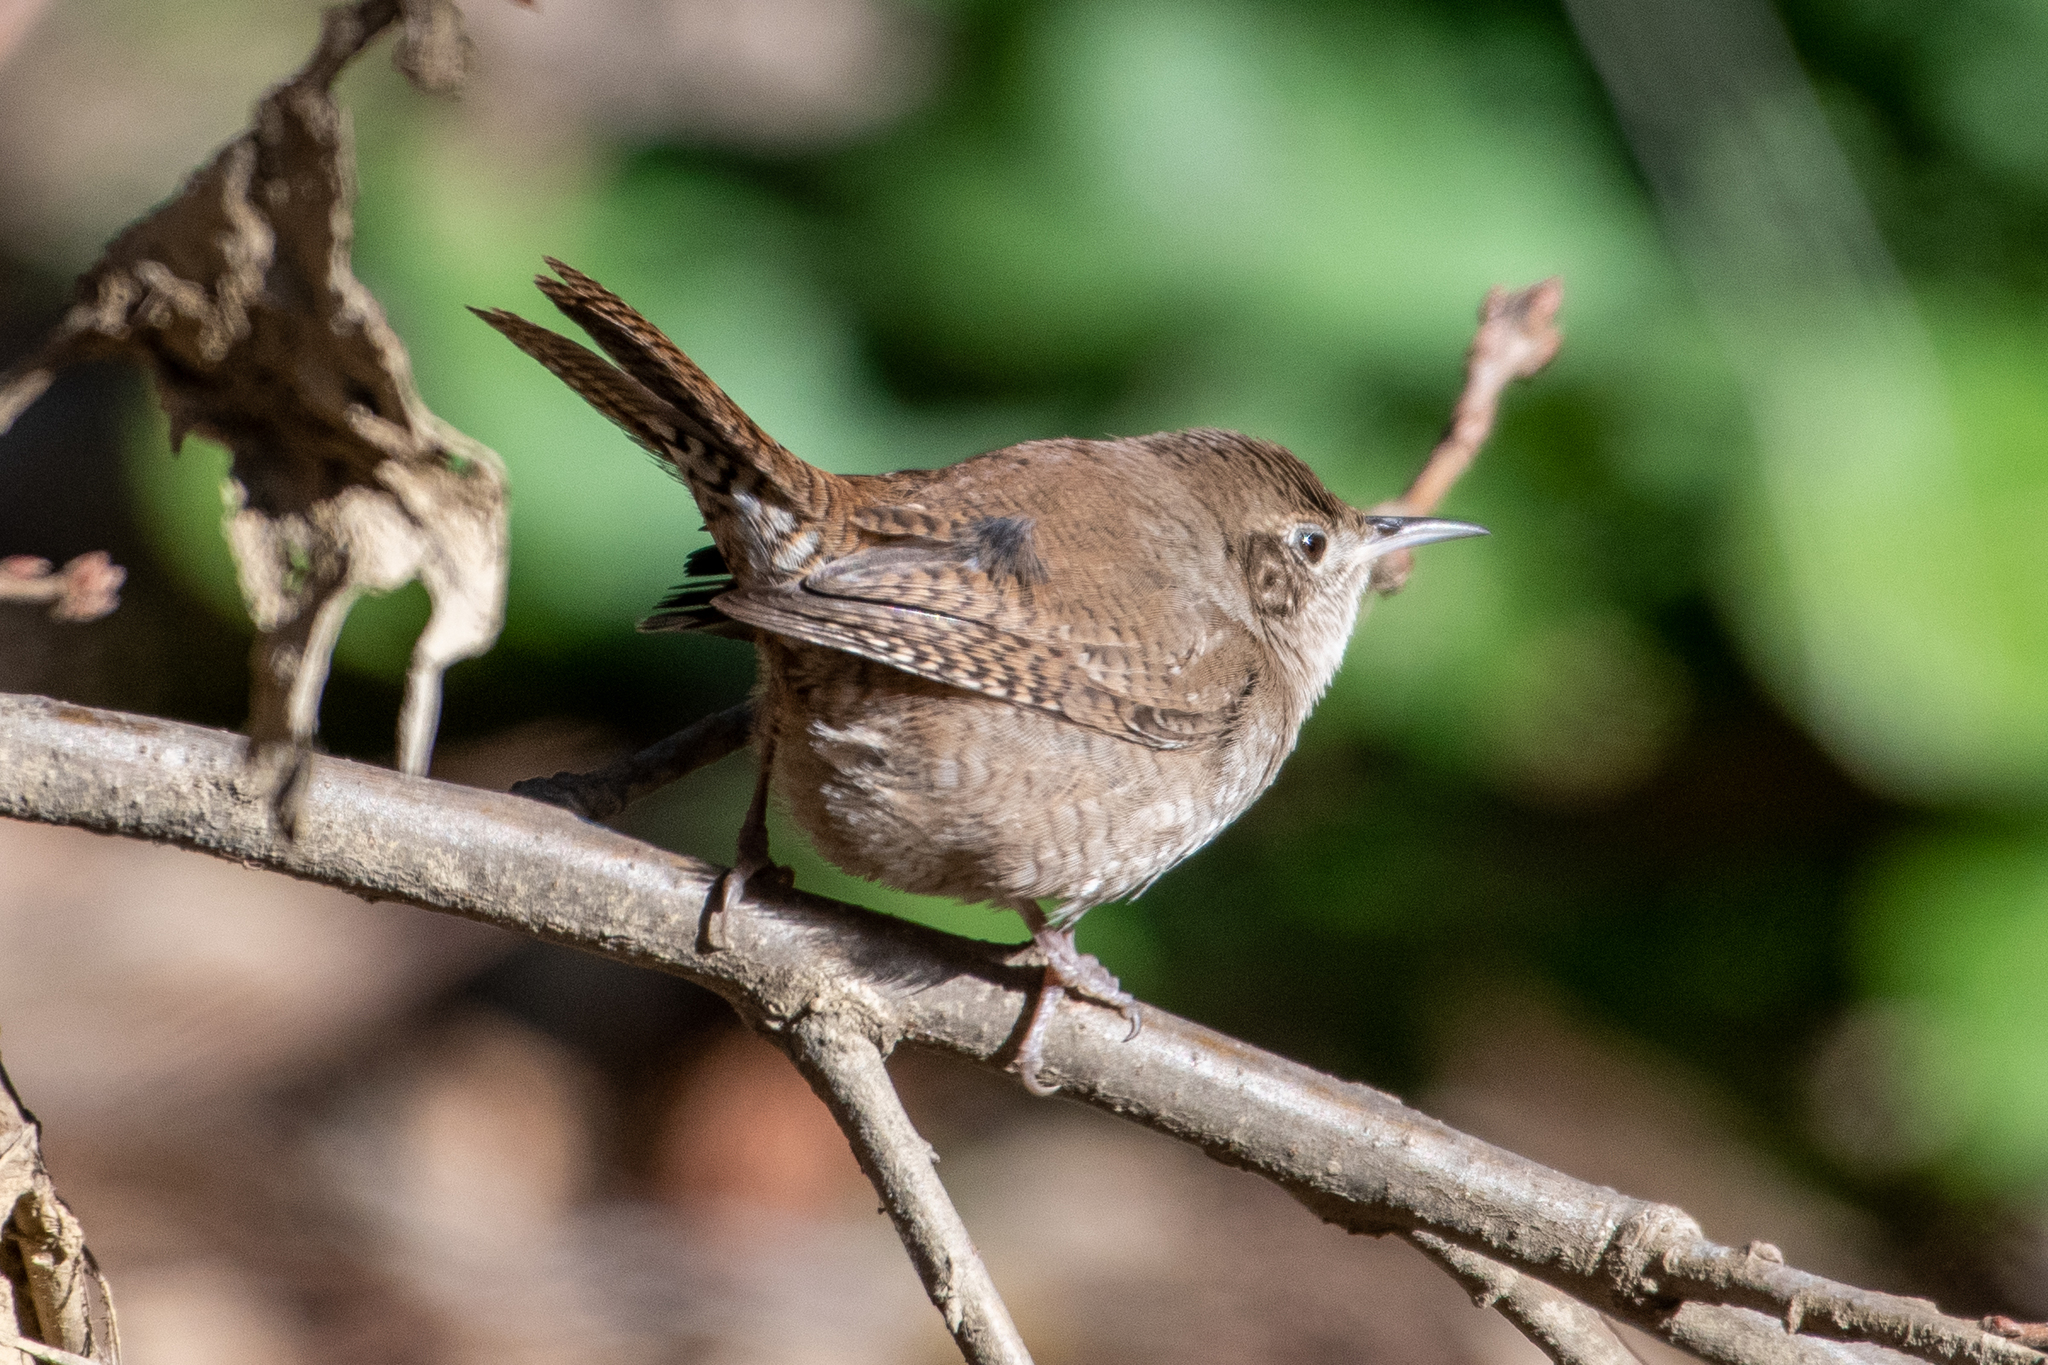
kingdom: Animalia
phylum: Chordata
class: Aves
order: Passeriformes
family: Troglodytidae
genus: Troglodytes
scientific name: Troglodytes aedon
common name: House wren
